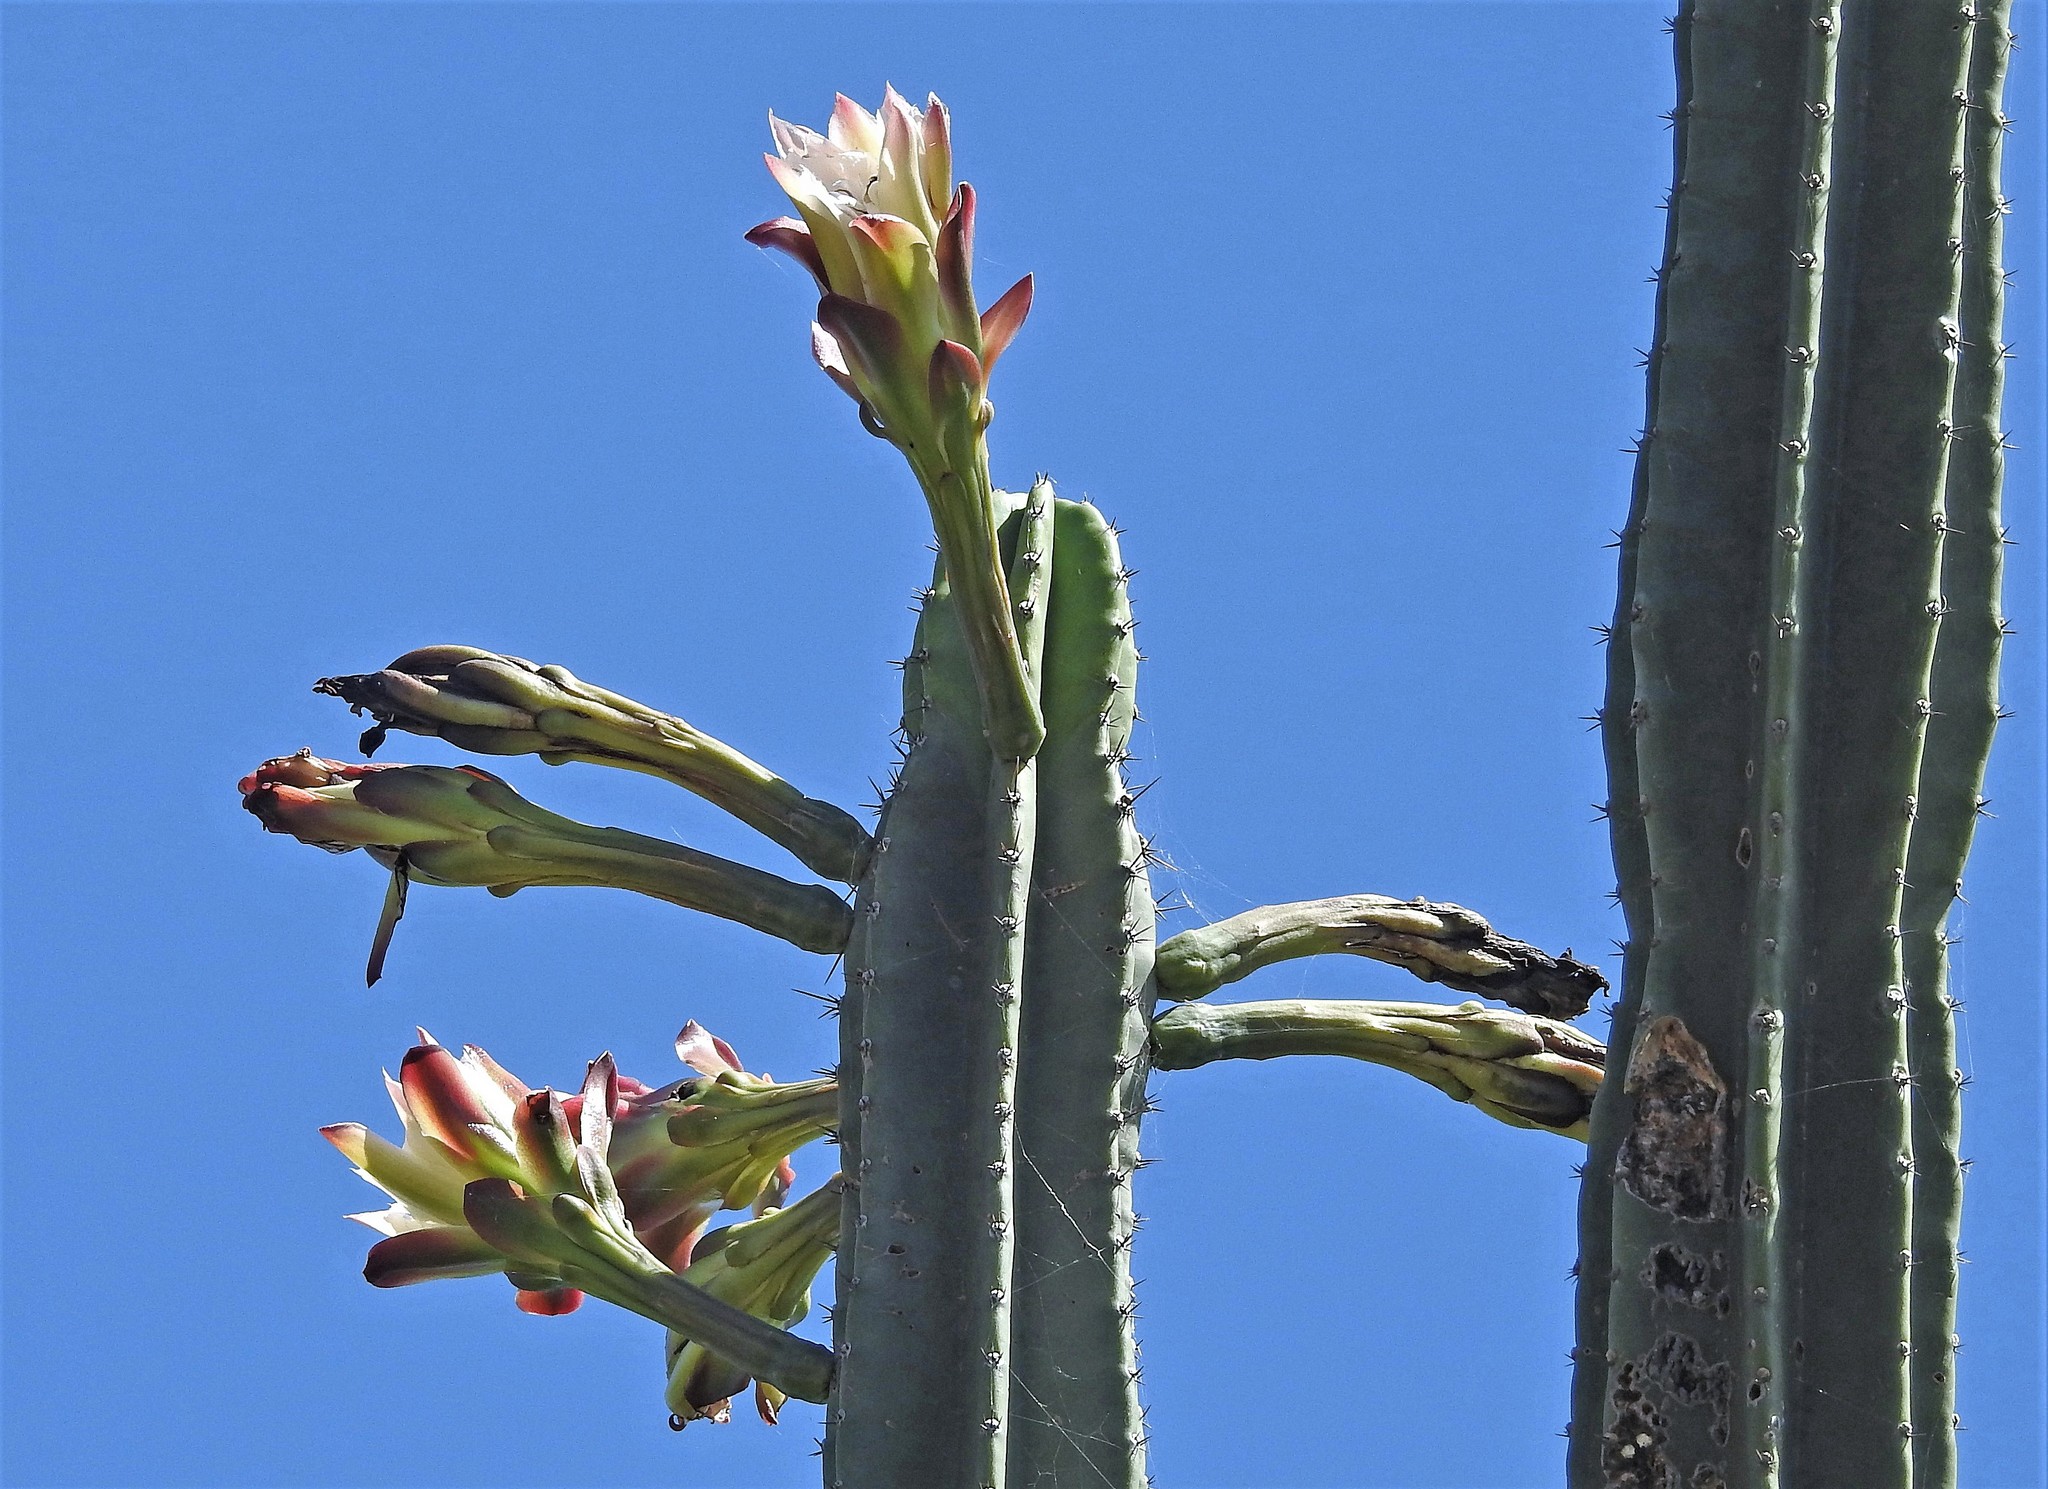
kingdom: Plantae
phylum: Tracheophyta
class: Magnoliopsida
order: Caryophyllales
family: Cactaceae
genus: Cereus
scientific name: Cereus hildmannianus
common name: Hedge cactus
